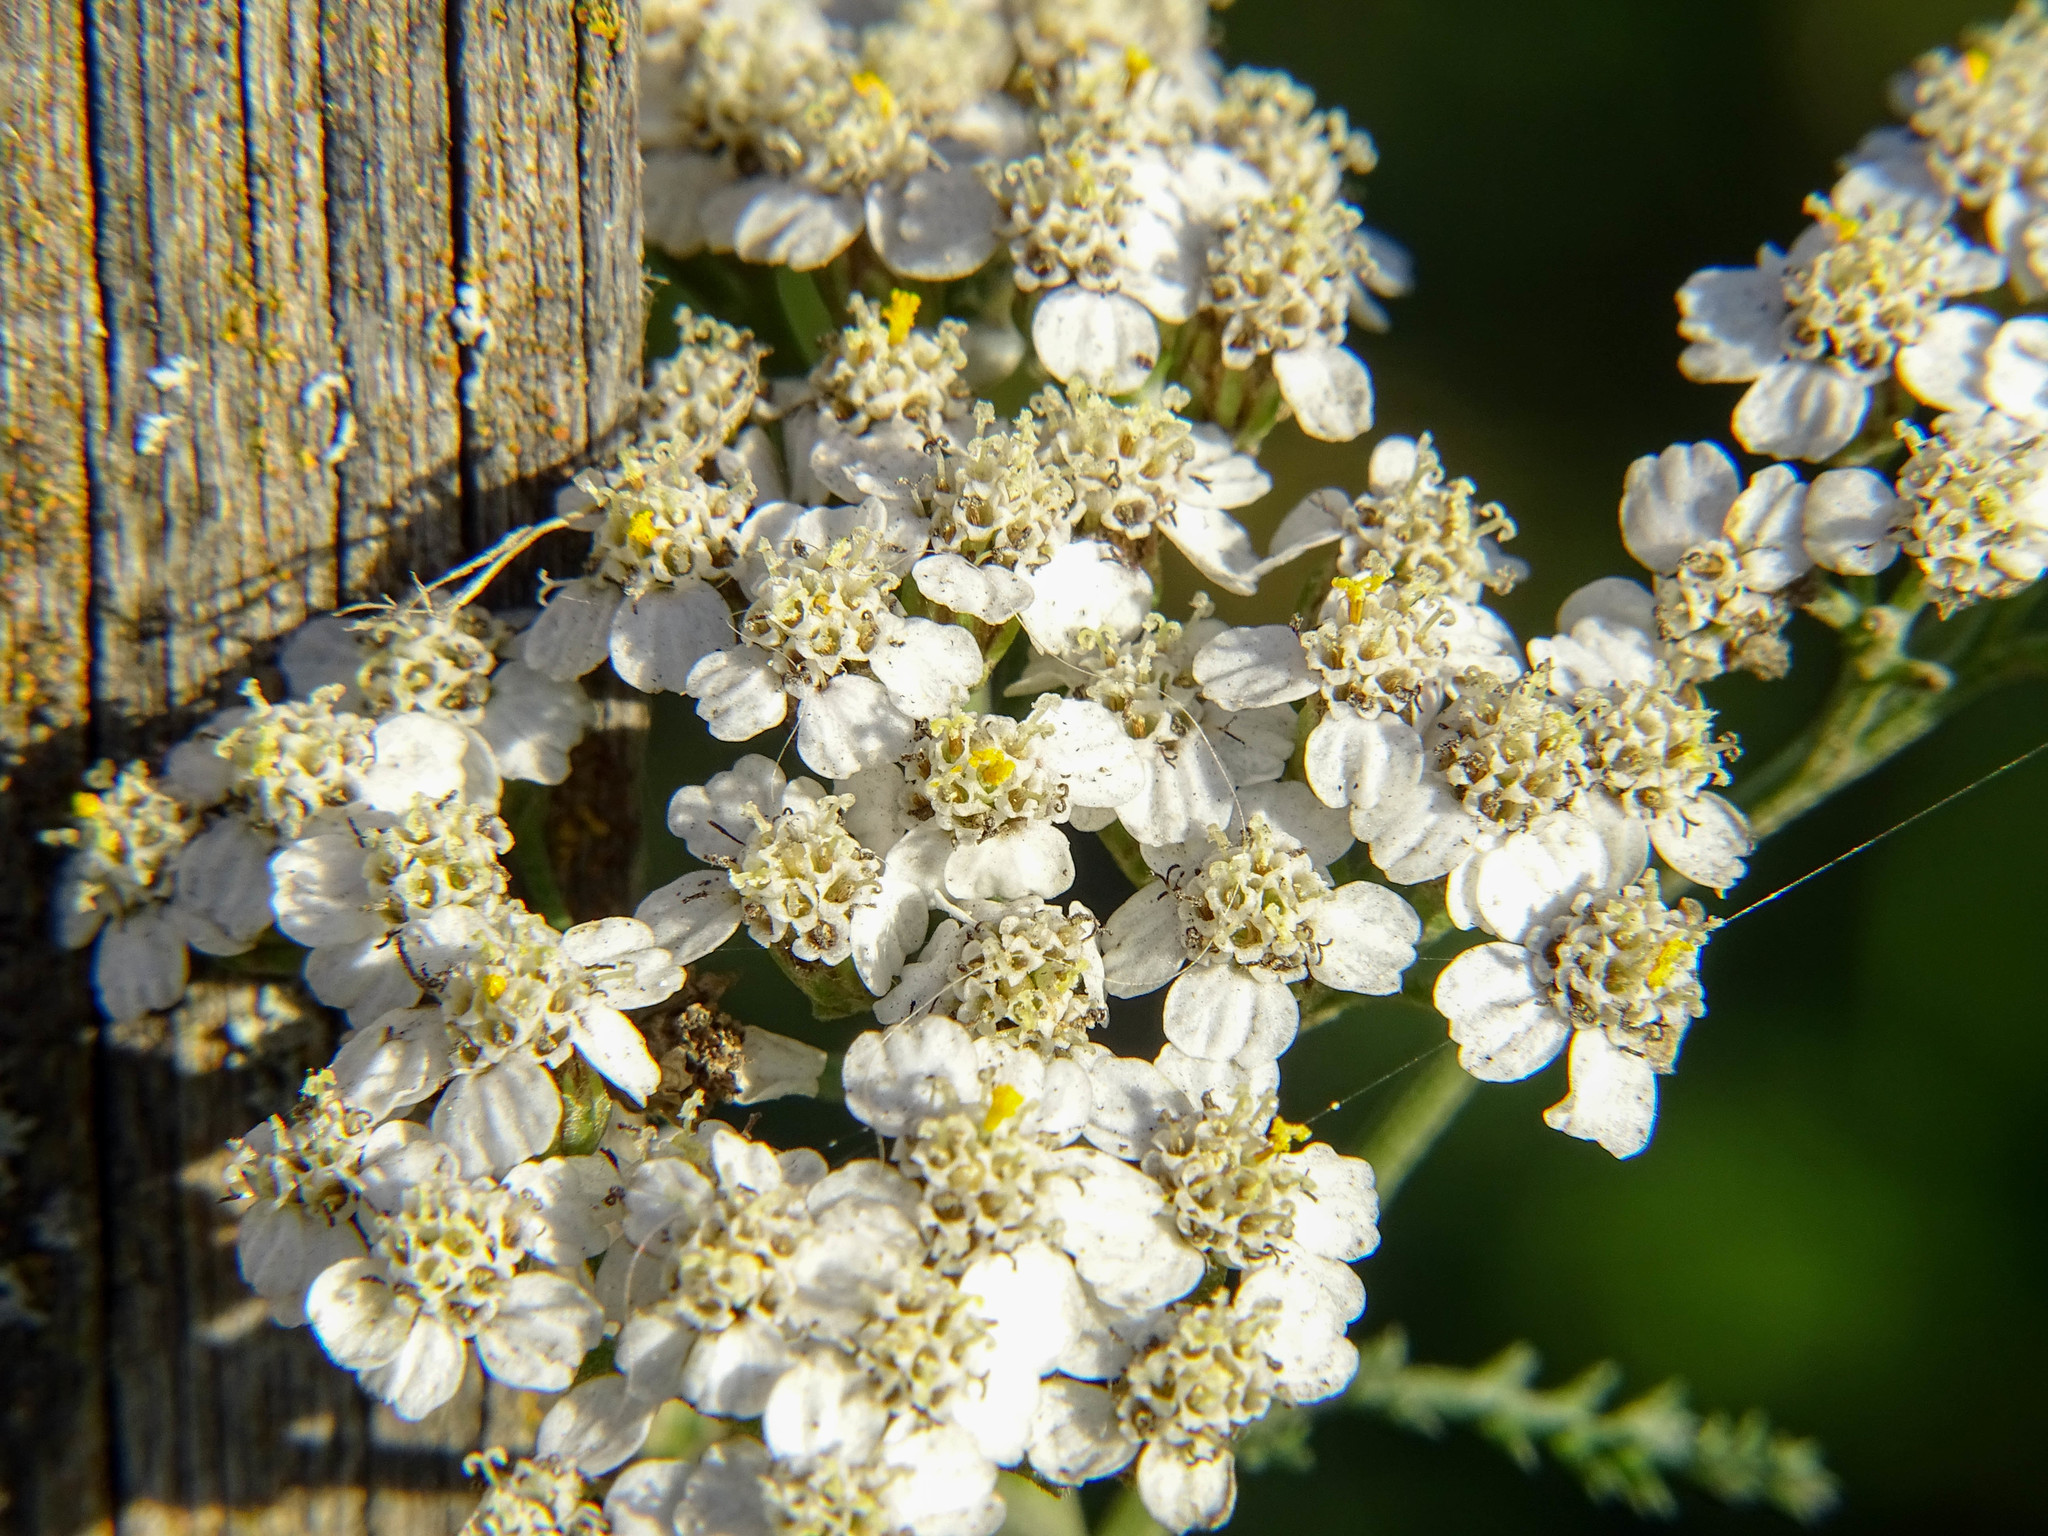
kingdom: Plantae
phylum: Tracheophyta
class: Magnoliopsida
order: Asterales
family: Asteraceae
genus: Achillea
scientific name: Achillea millefolium
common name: Yarrow
